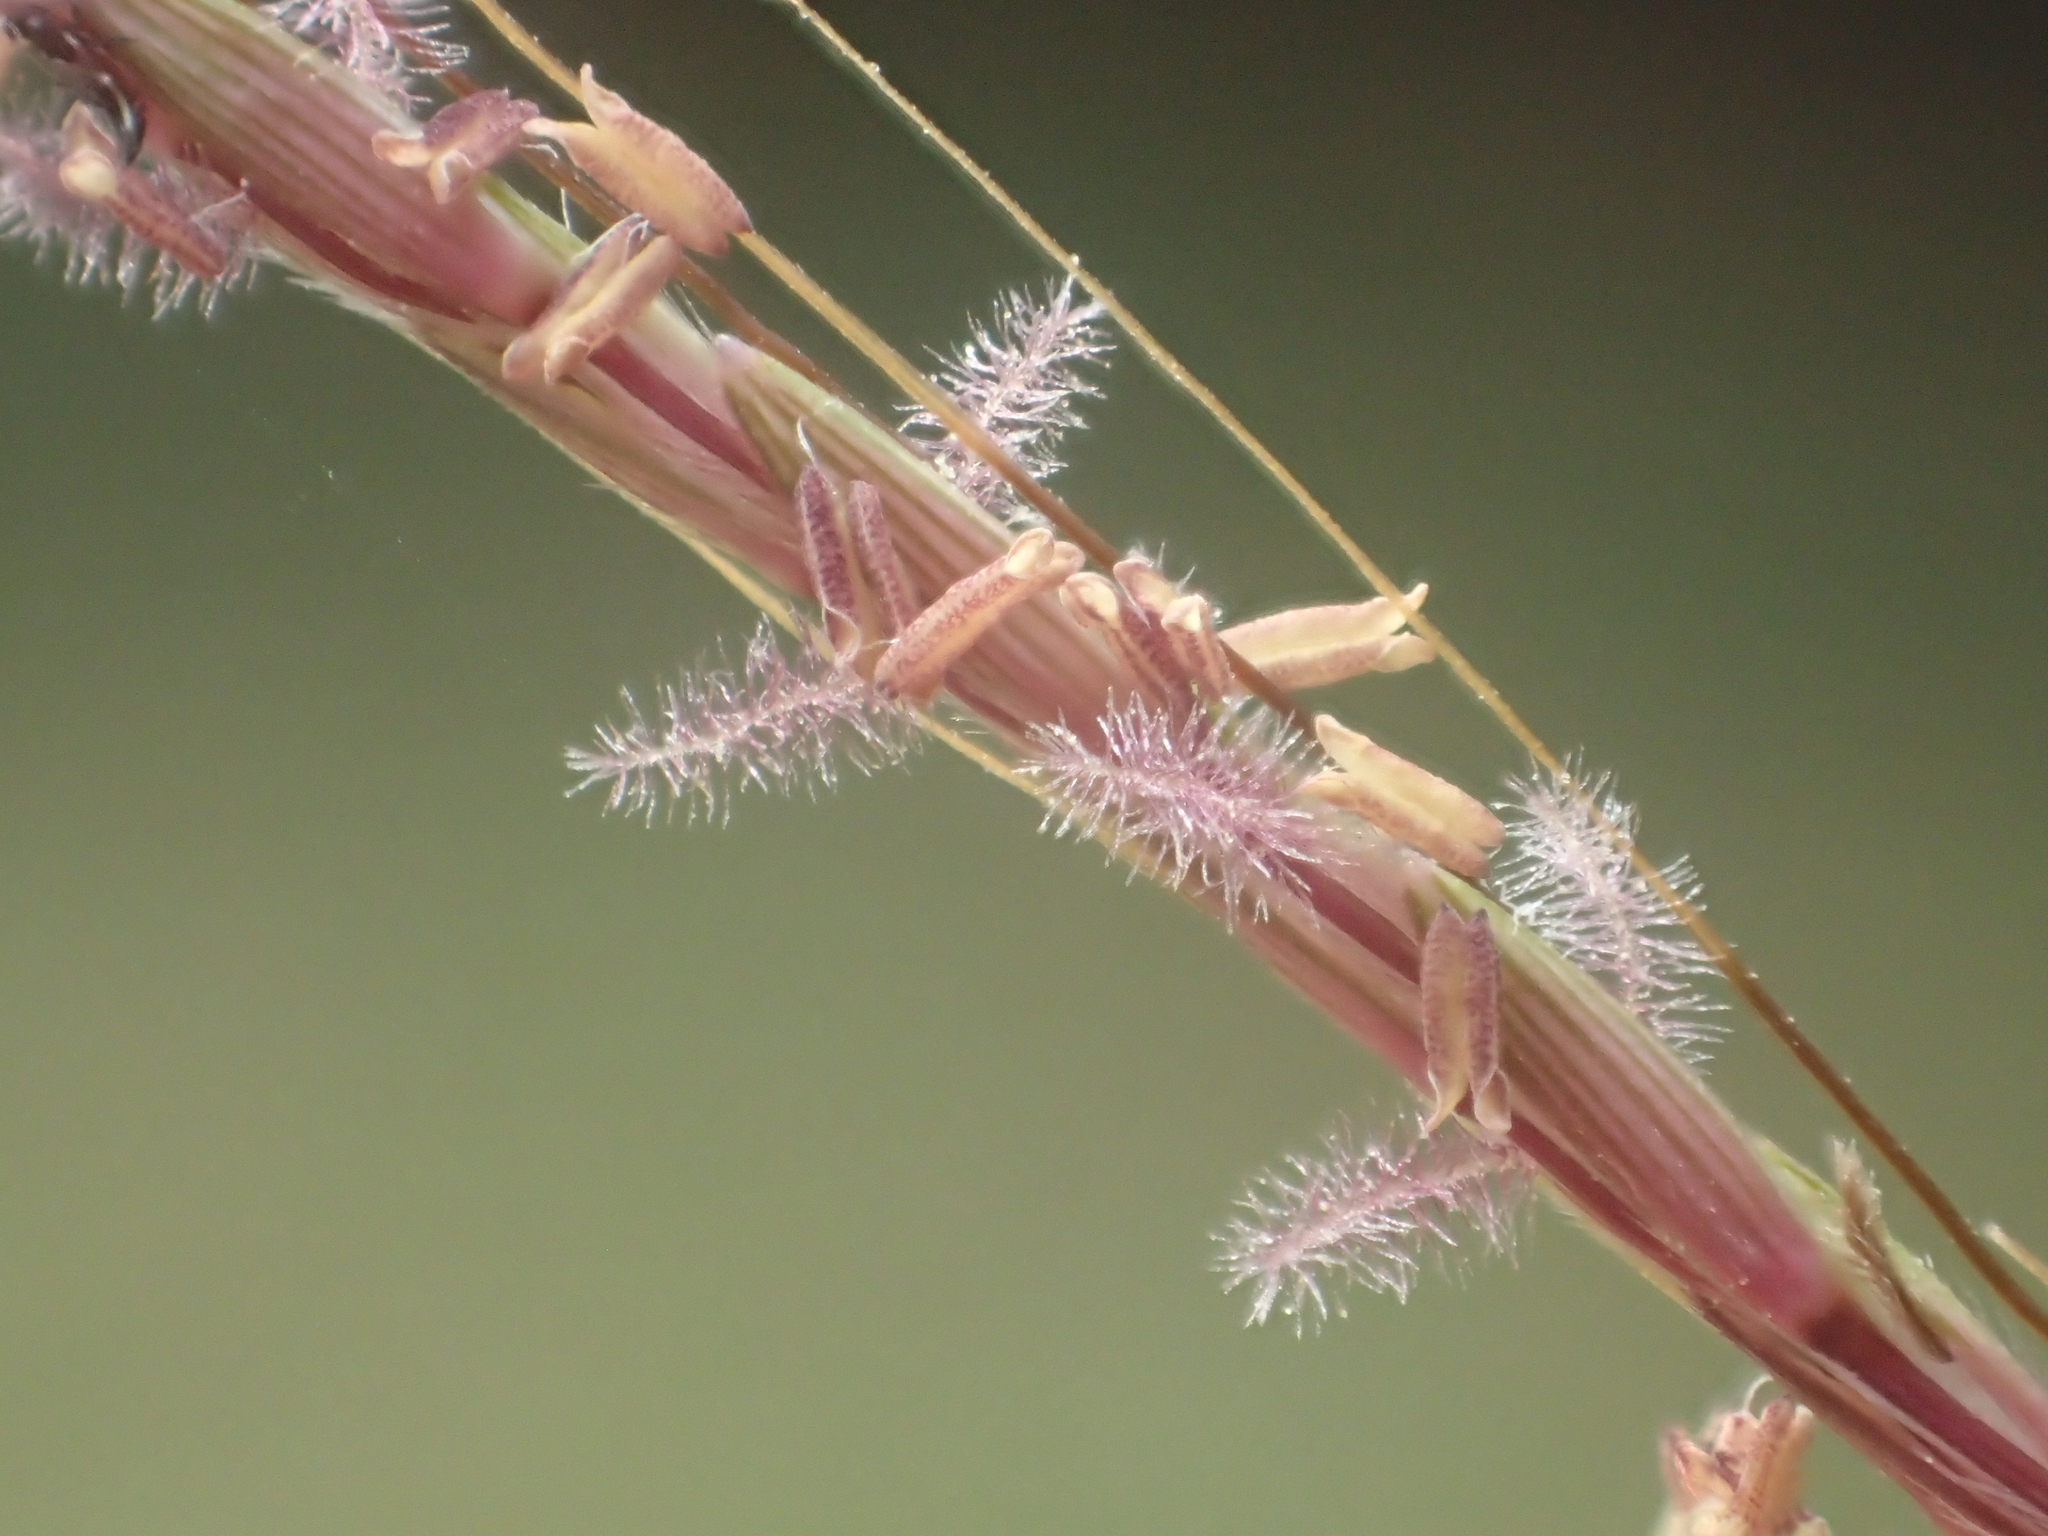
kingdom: Plantae
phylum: Tracheophyta
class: Liliopsida
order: Poales
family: Poaceae
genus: Bothriochloa
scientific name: Bothriochloa bladhii
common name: Caucasian bluestem
